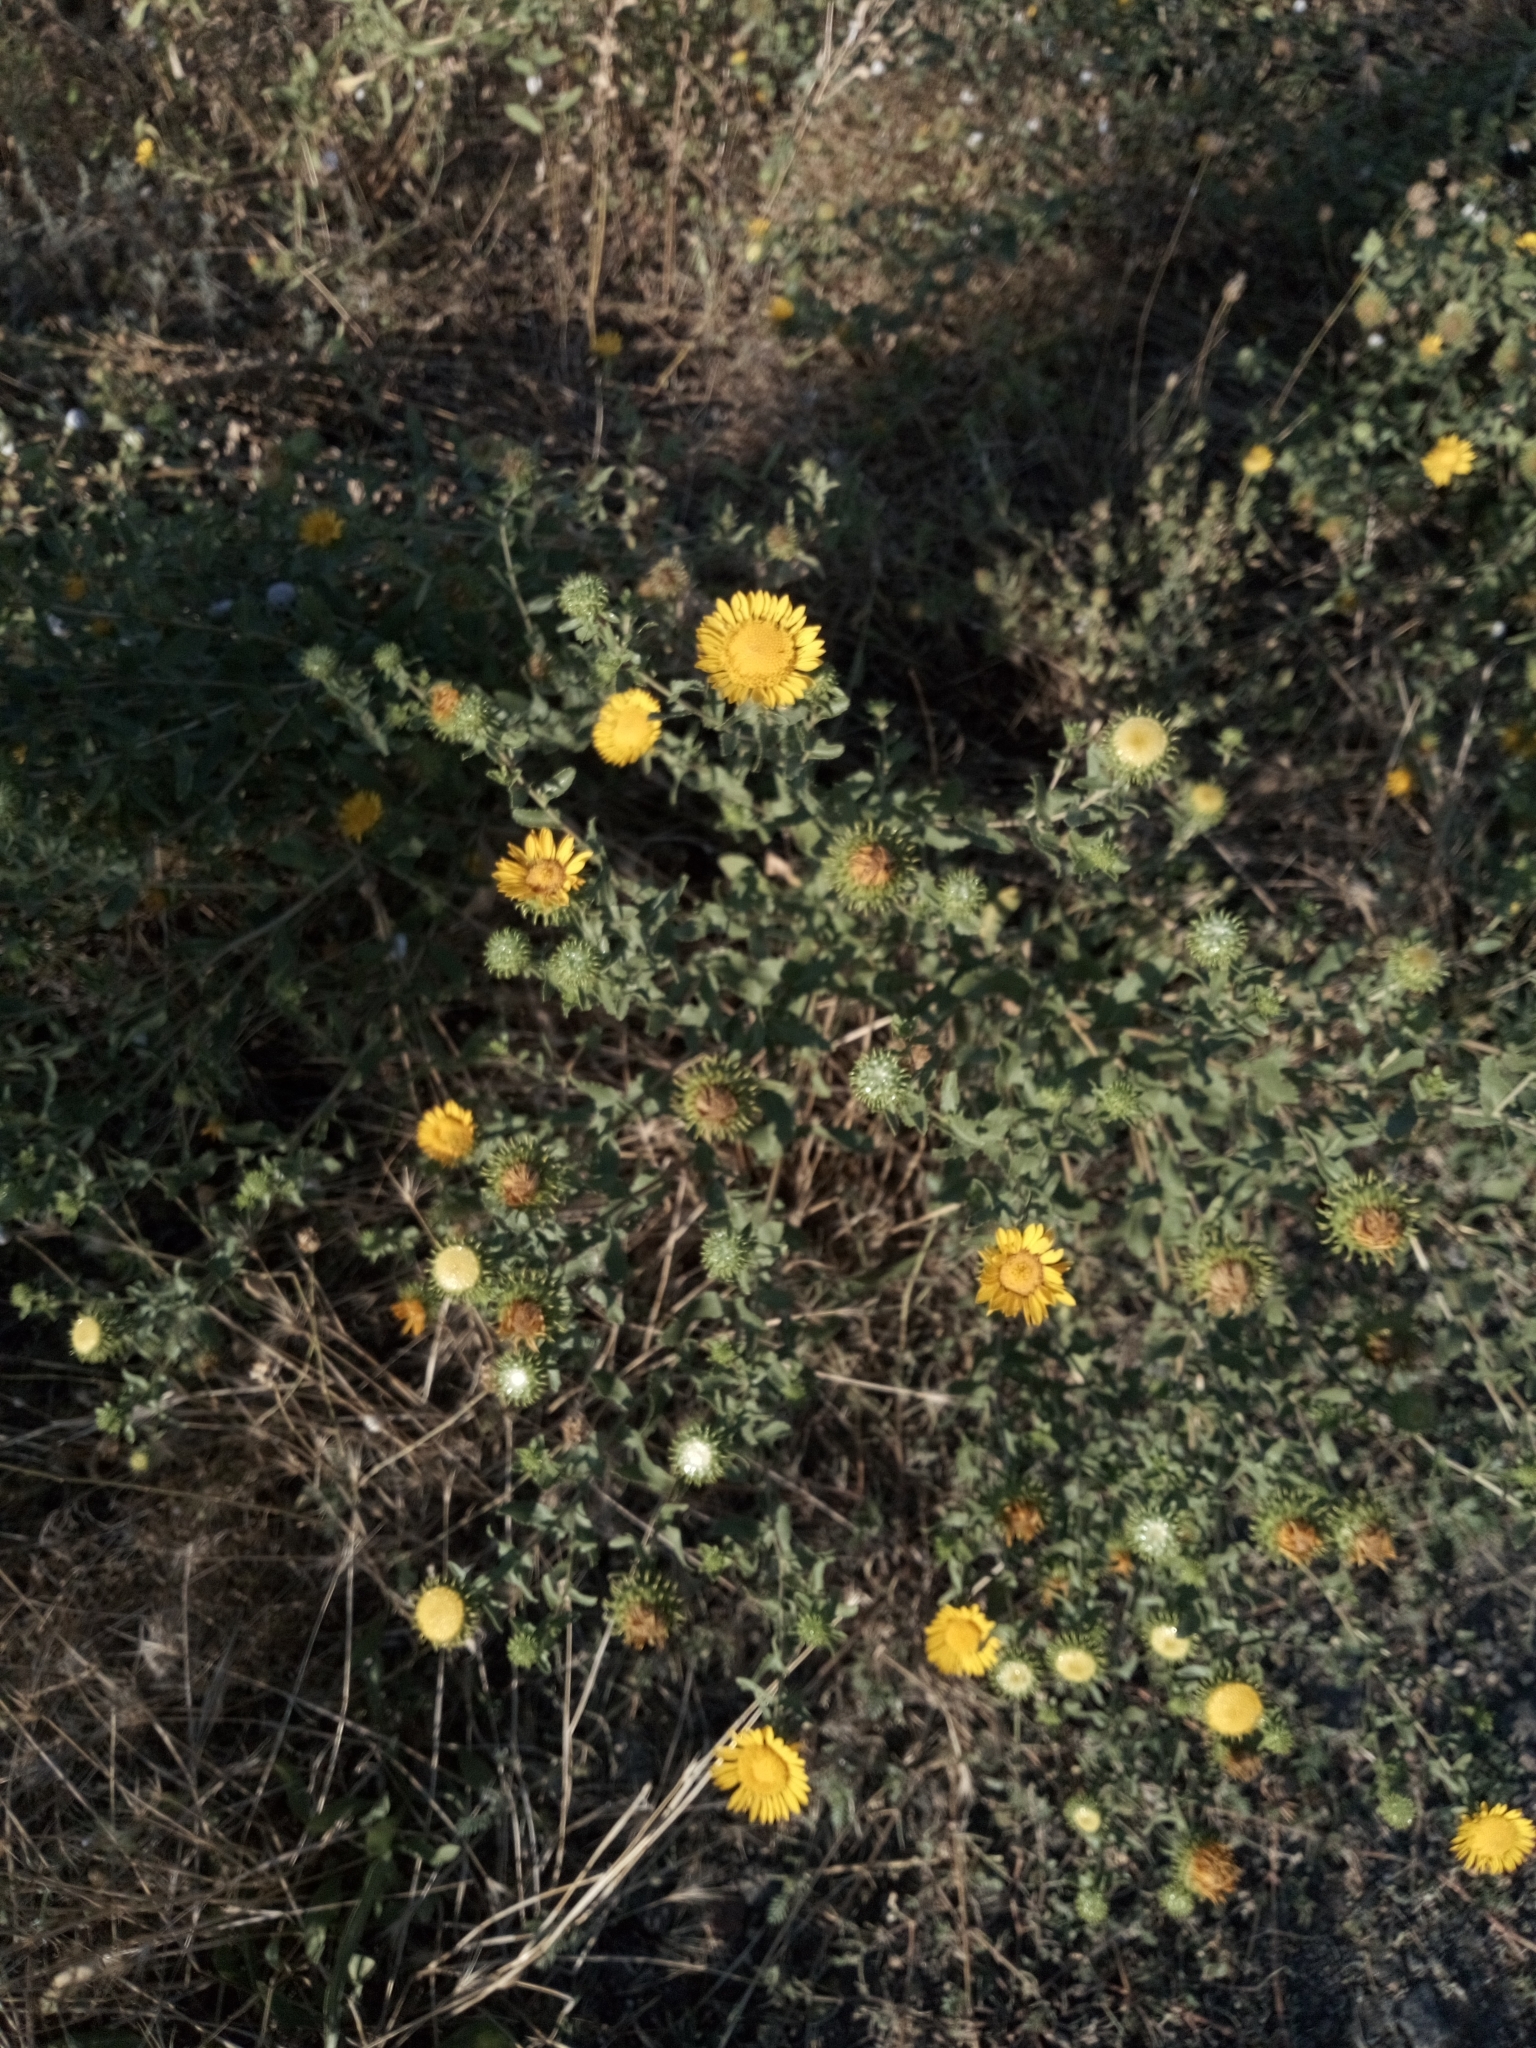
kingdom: Plantae
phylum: Tracheophyta
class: Magnoliopsida
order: Asterales
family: Asteraceae
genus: Grindelia
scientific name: Grindelia squarrosa
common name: Curly-cup gumweed
